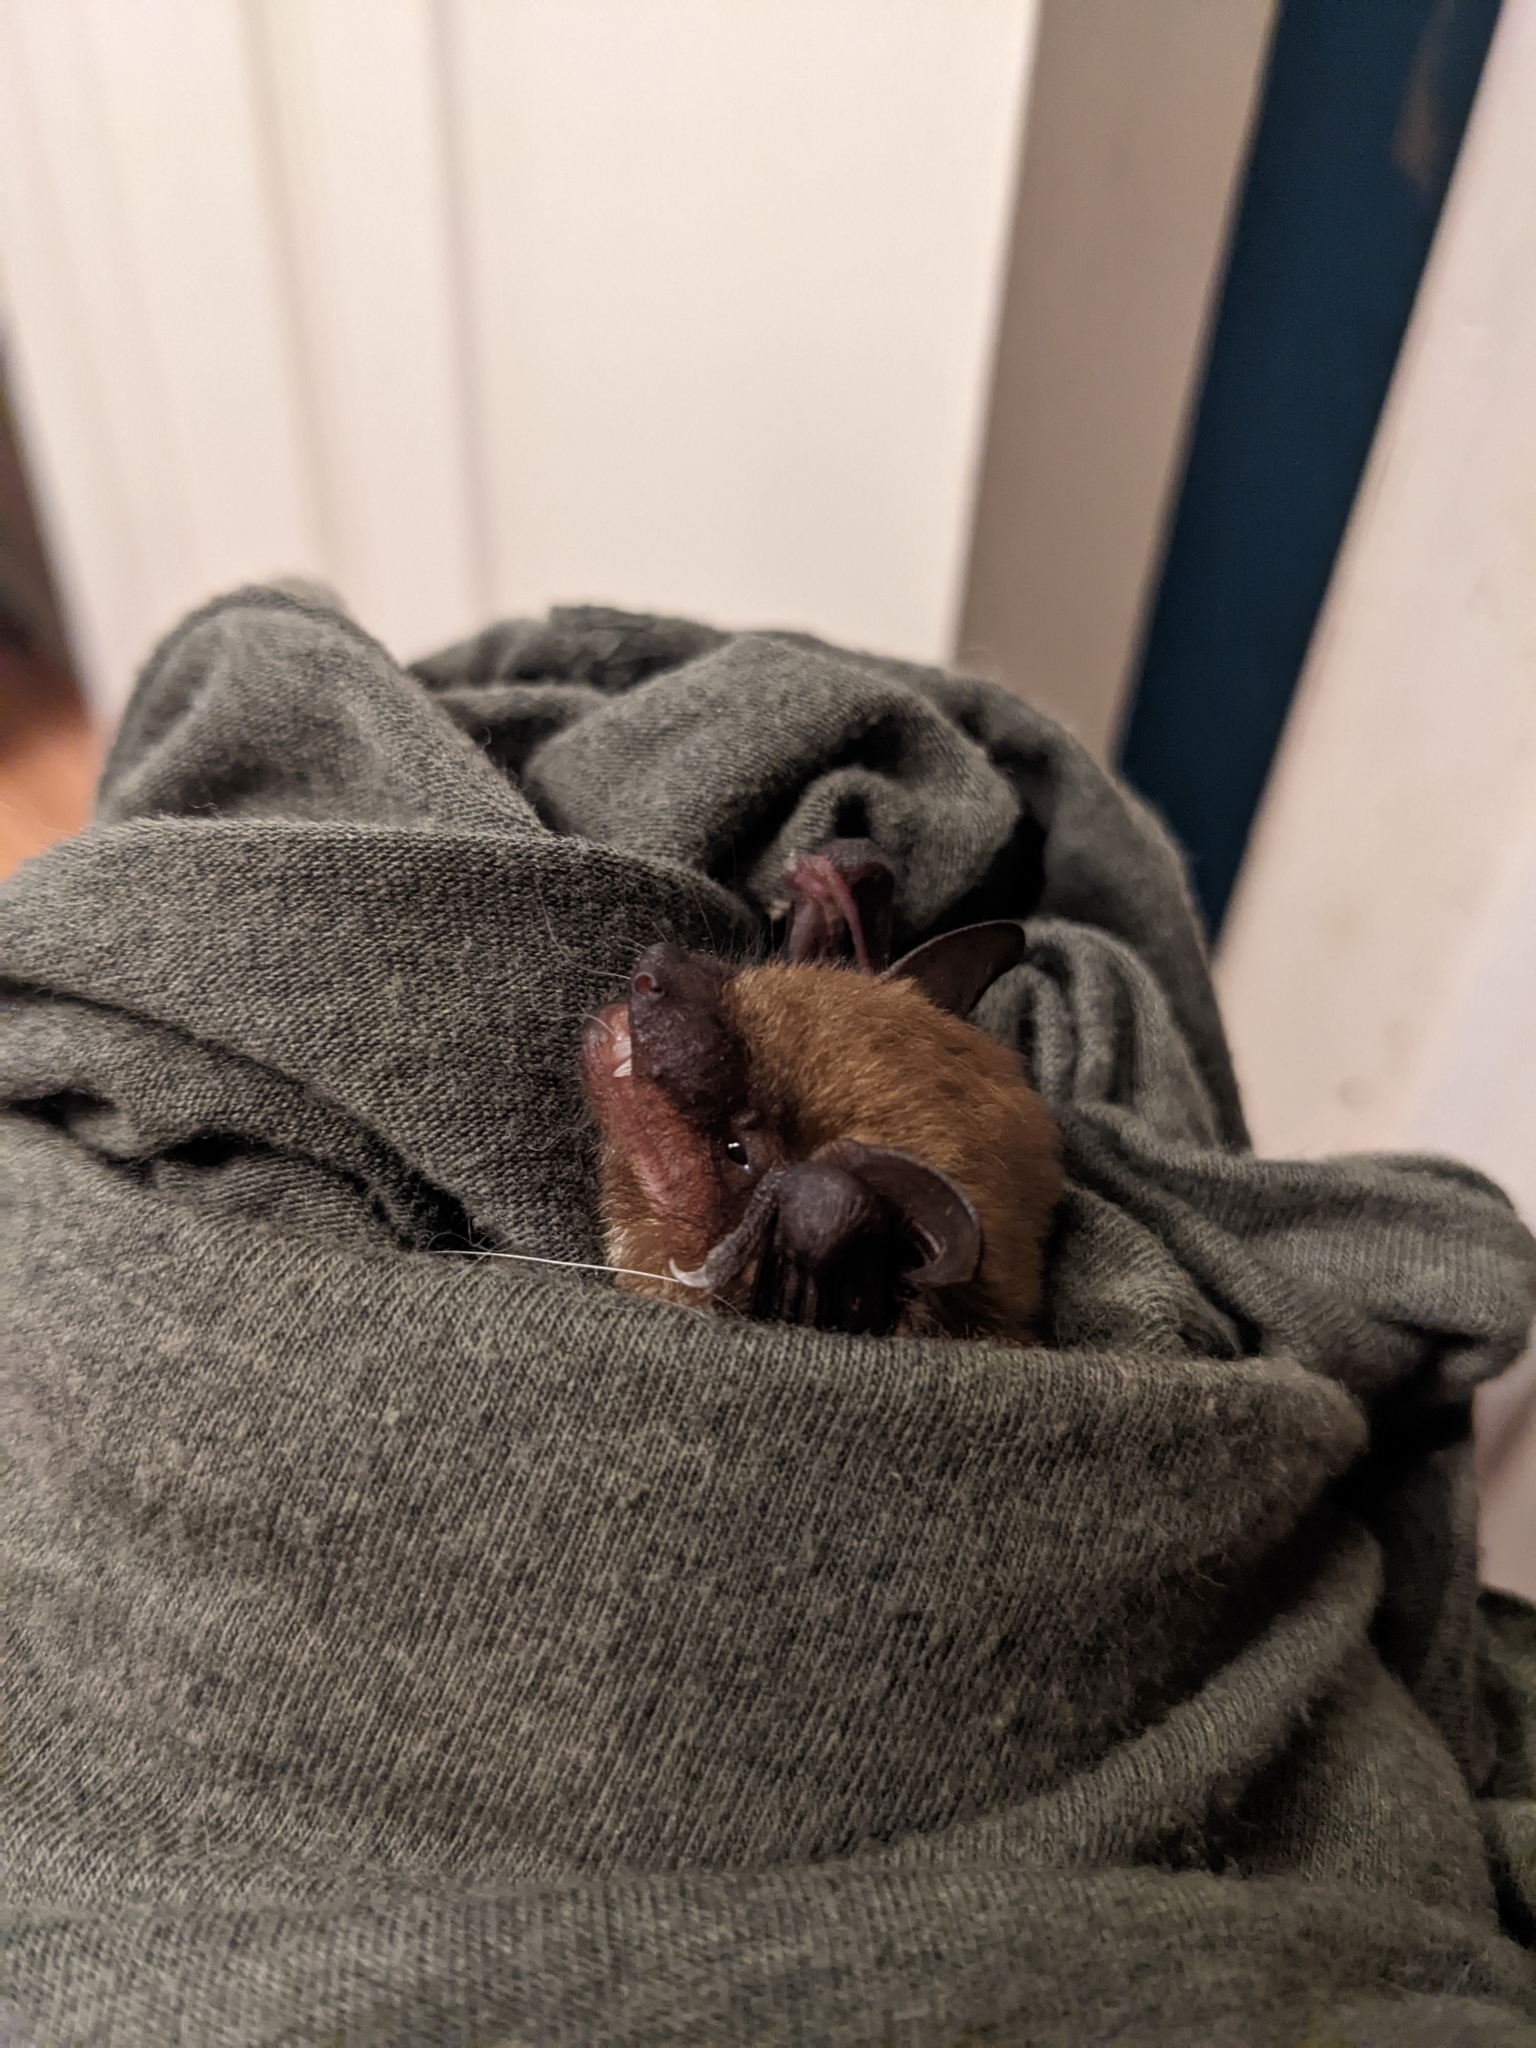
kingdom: Animalia
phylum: Chordata
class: Mammalia
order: Chiroptera
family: Vespertilionidae
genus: Eptesicus
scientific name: Eptesicus fuscus
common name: Big brown bat
